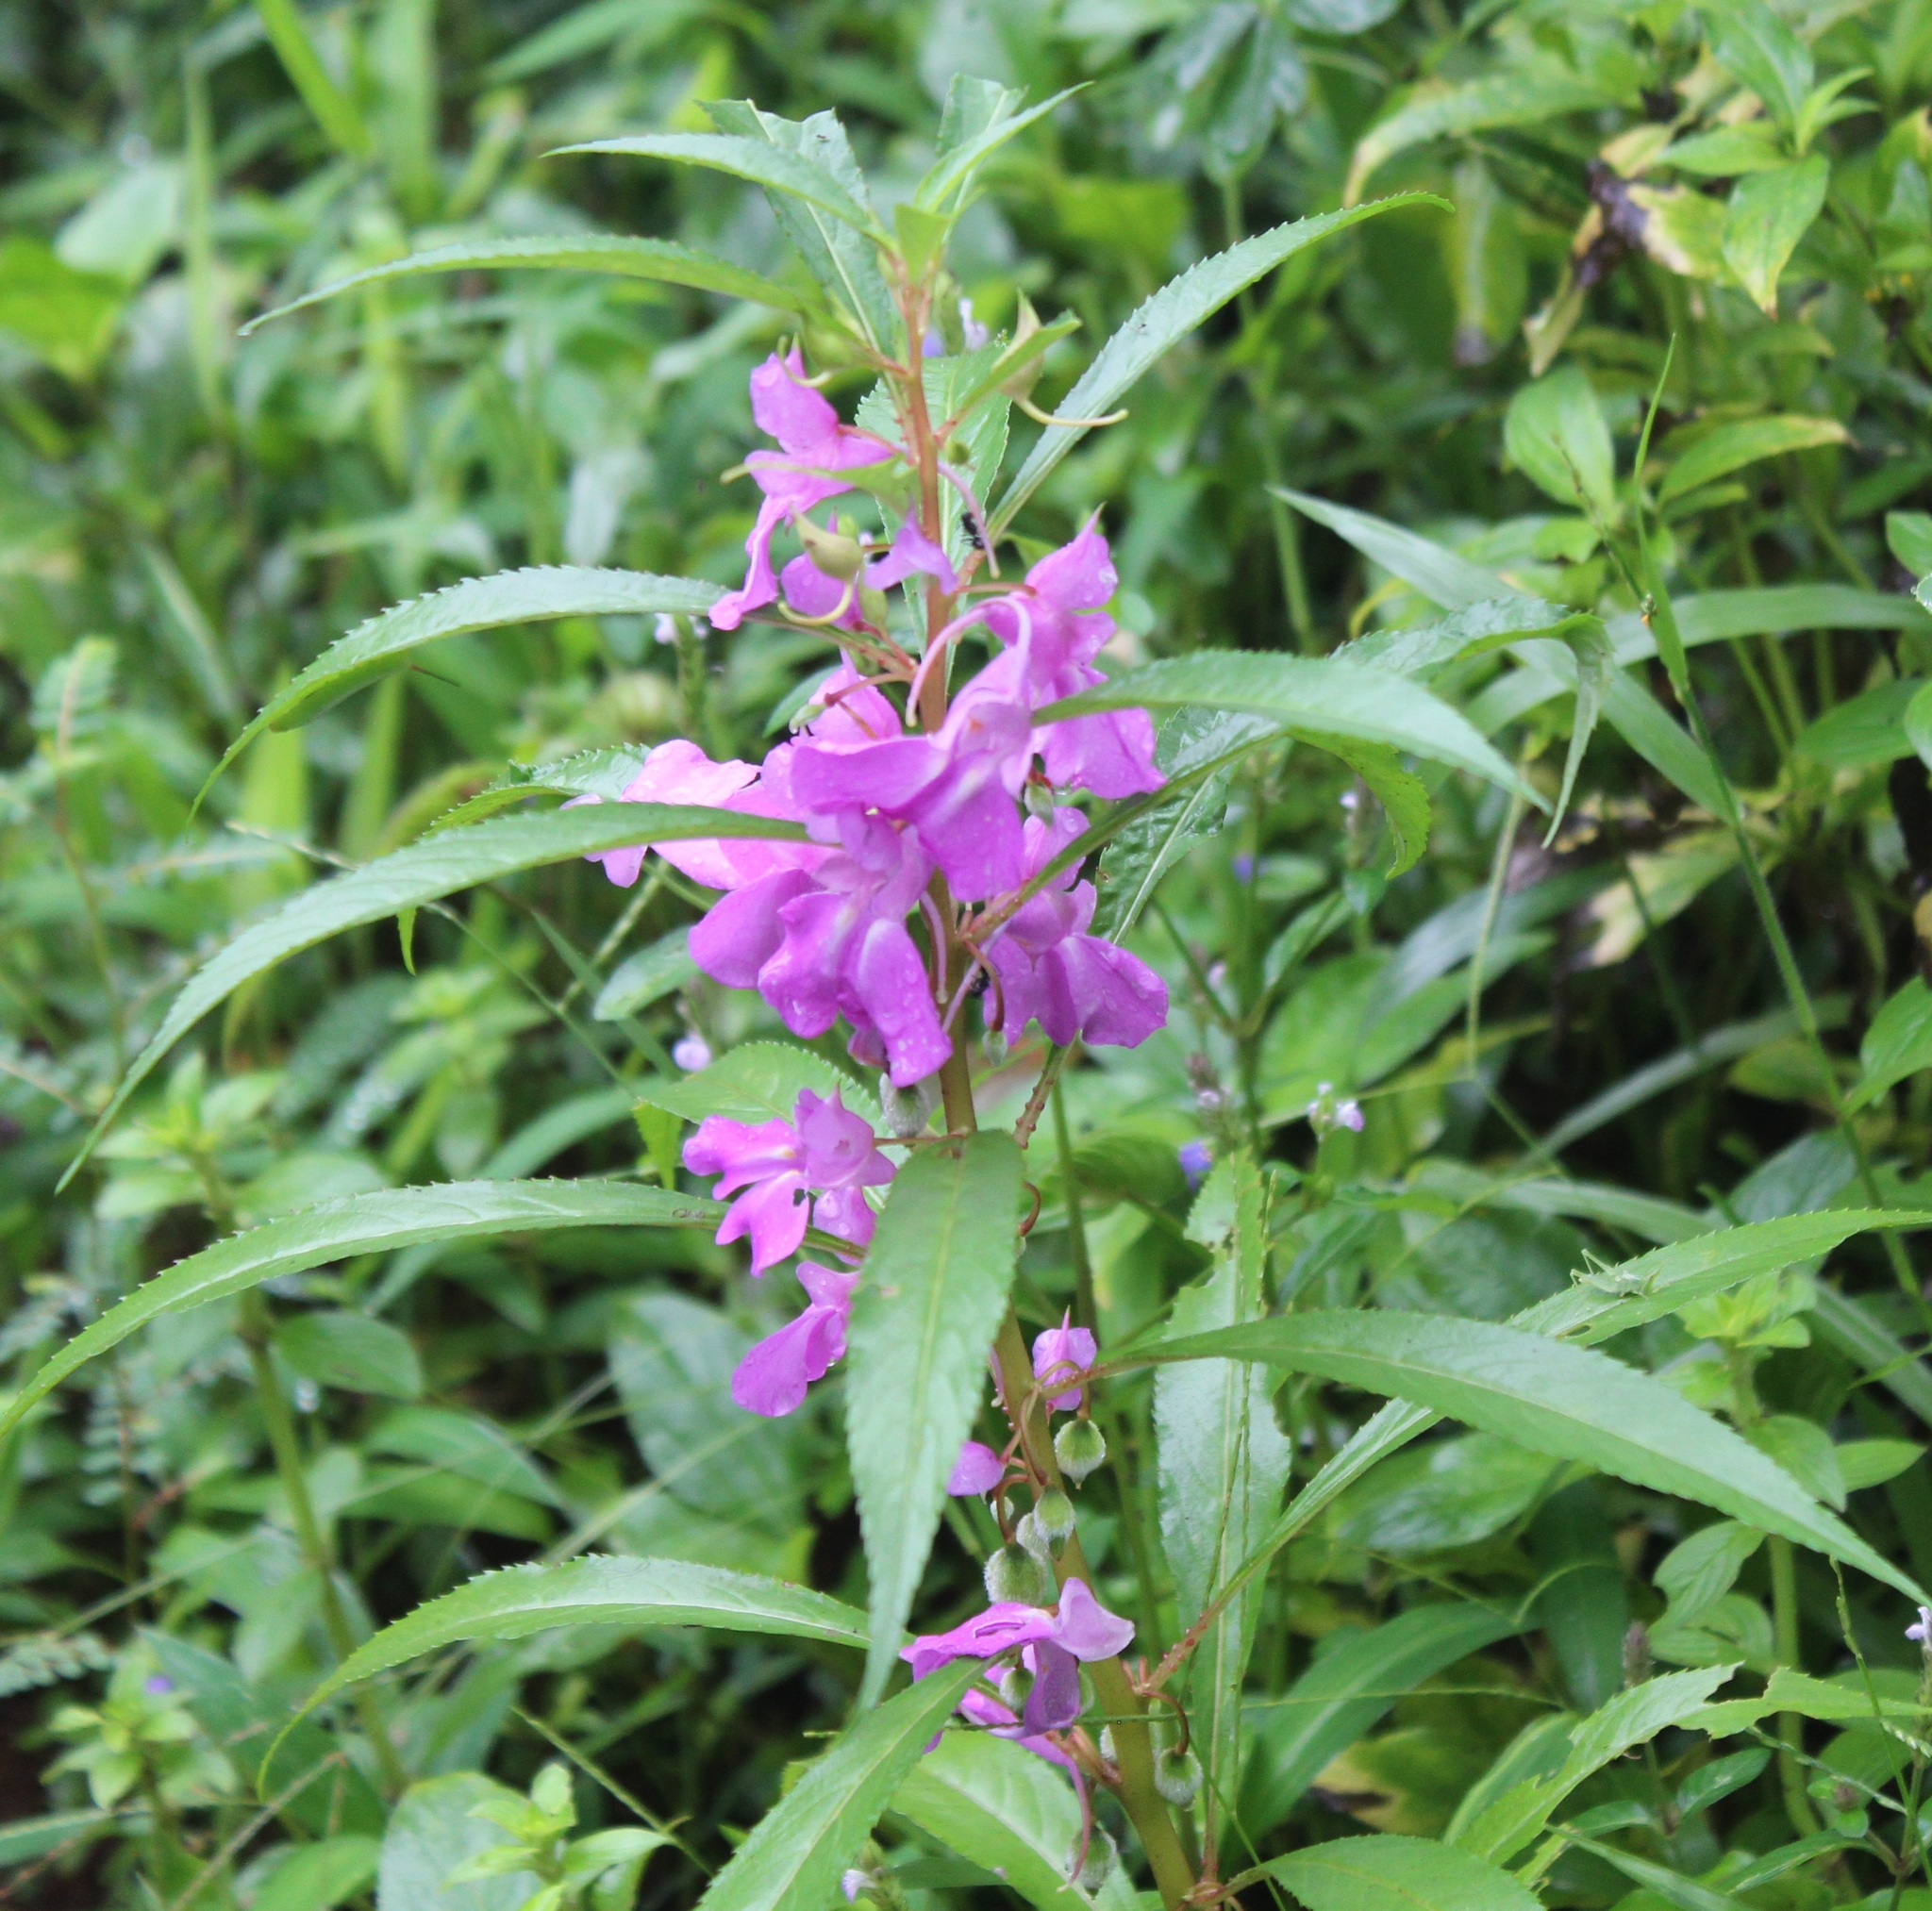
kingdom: Plantae
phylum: Tracheophyta
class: Magnoliopsida
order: Ericales
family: Balsaminaceae
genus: Impatiens
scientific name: Impatiens balsamina
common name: Balsam
